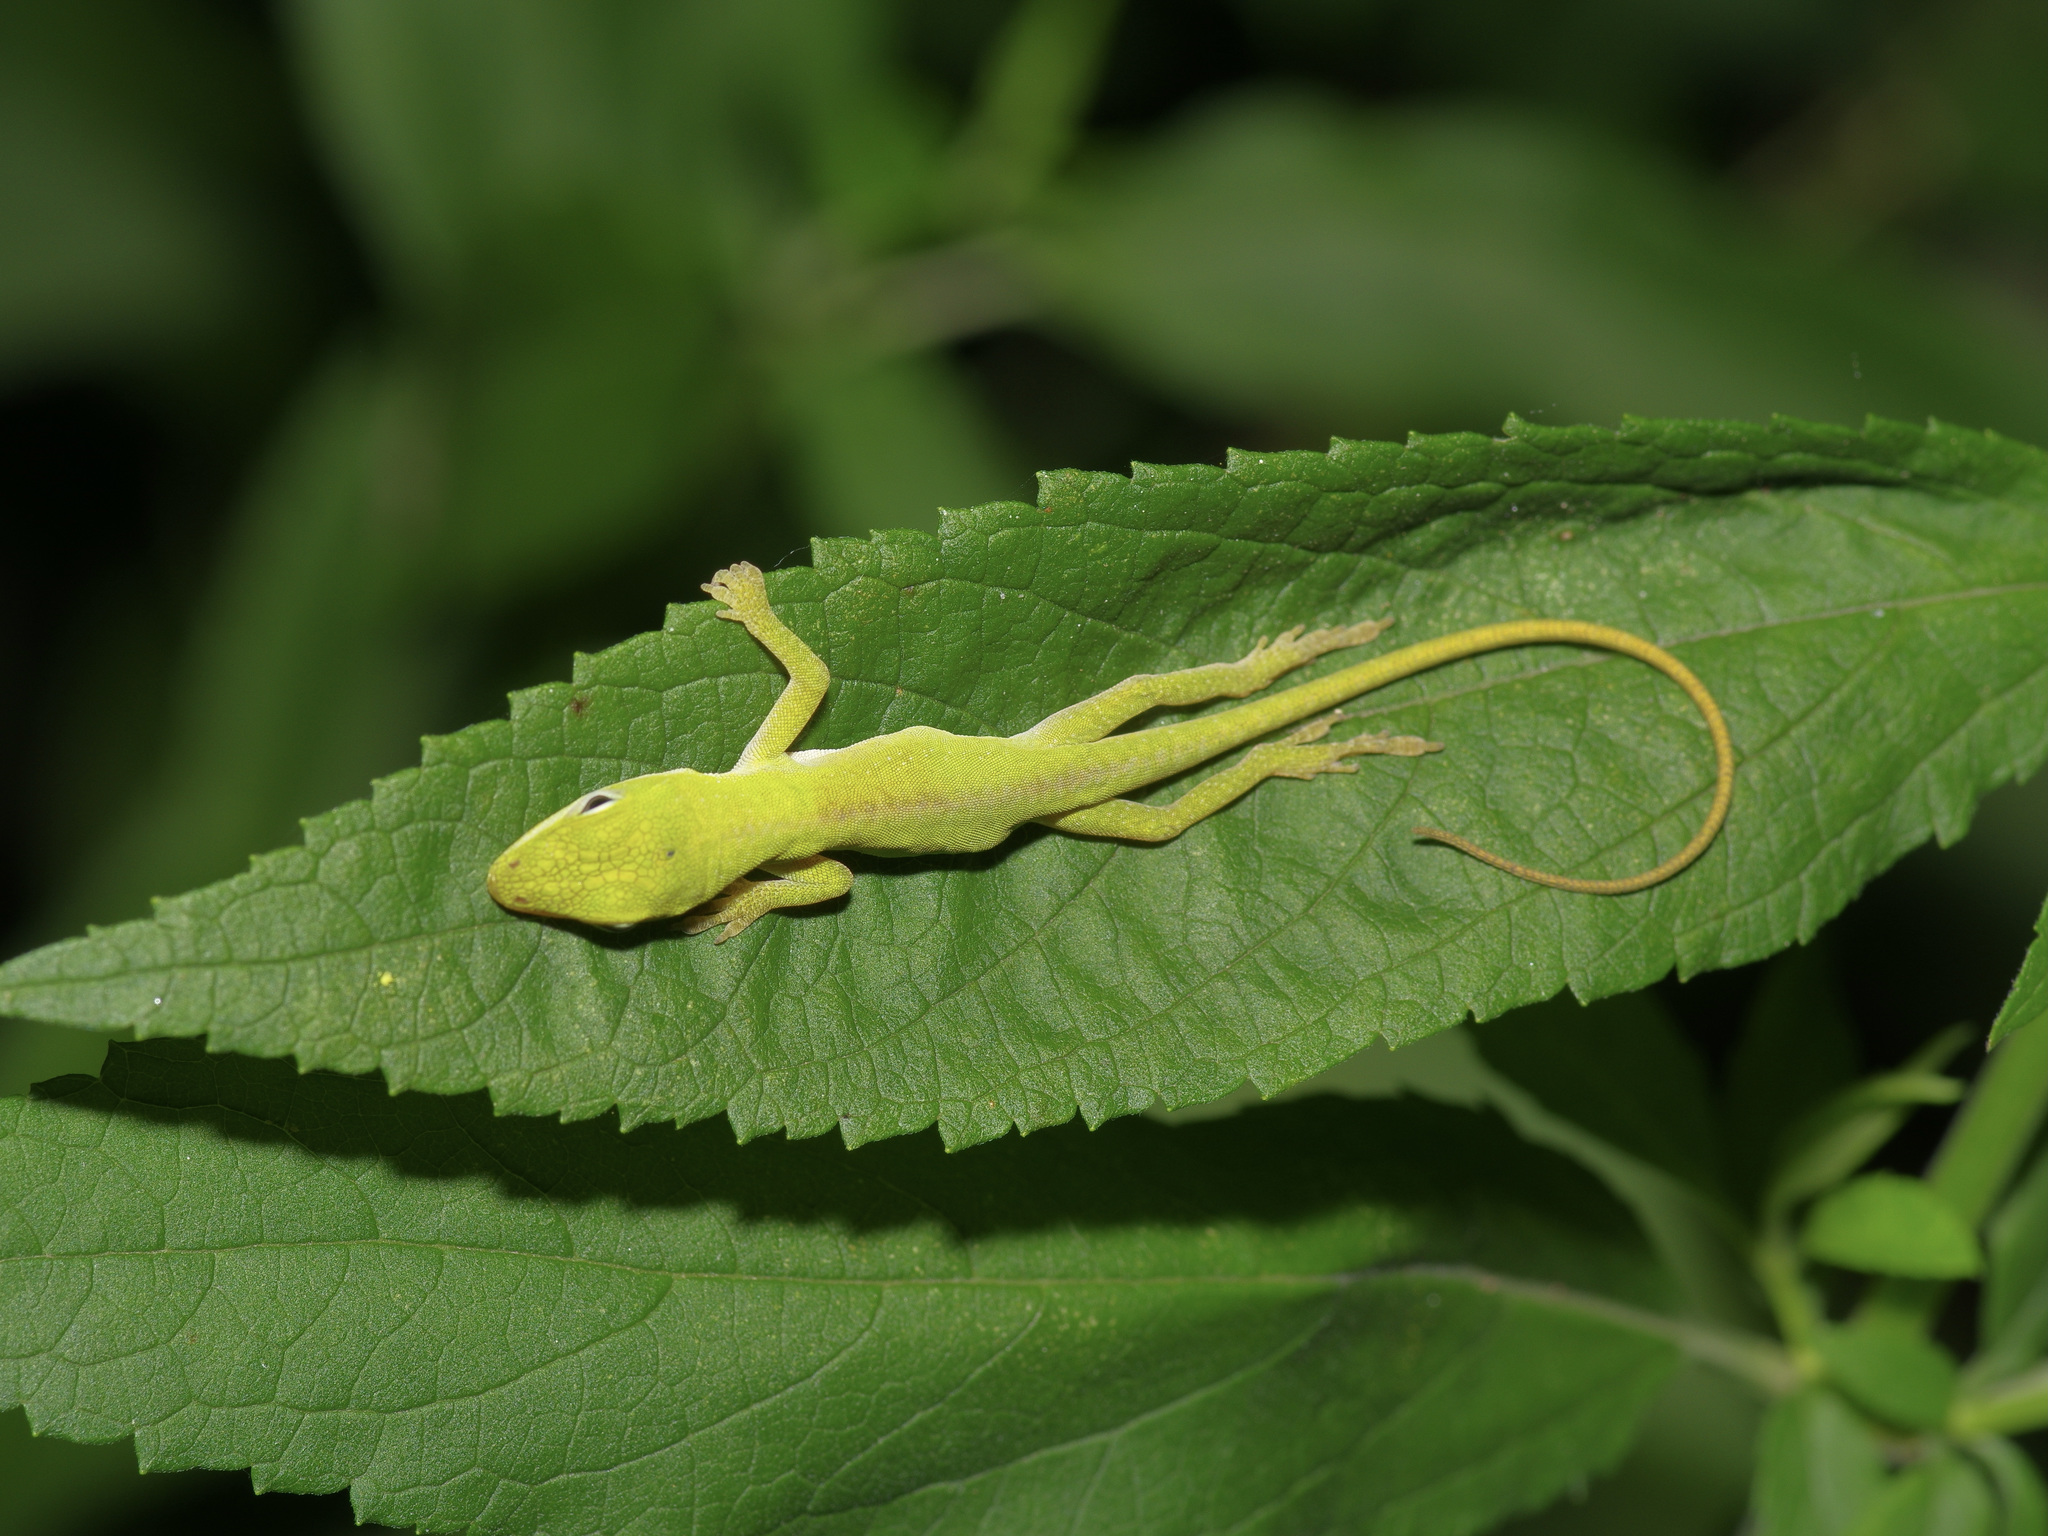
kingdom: Animalia
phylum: Chordata
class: Squamata
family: Dactyloidae
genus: Anolis
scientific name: Anolis carolinensis
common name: Green anole
